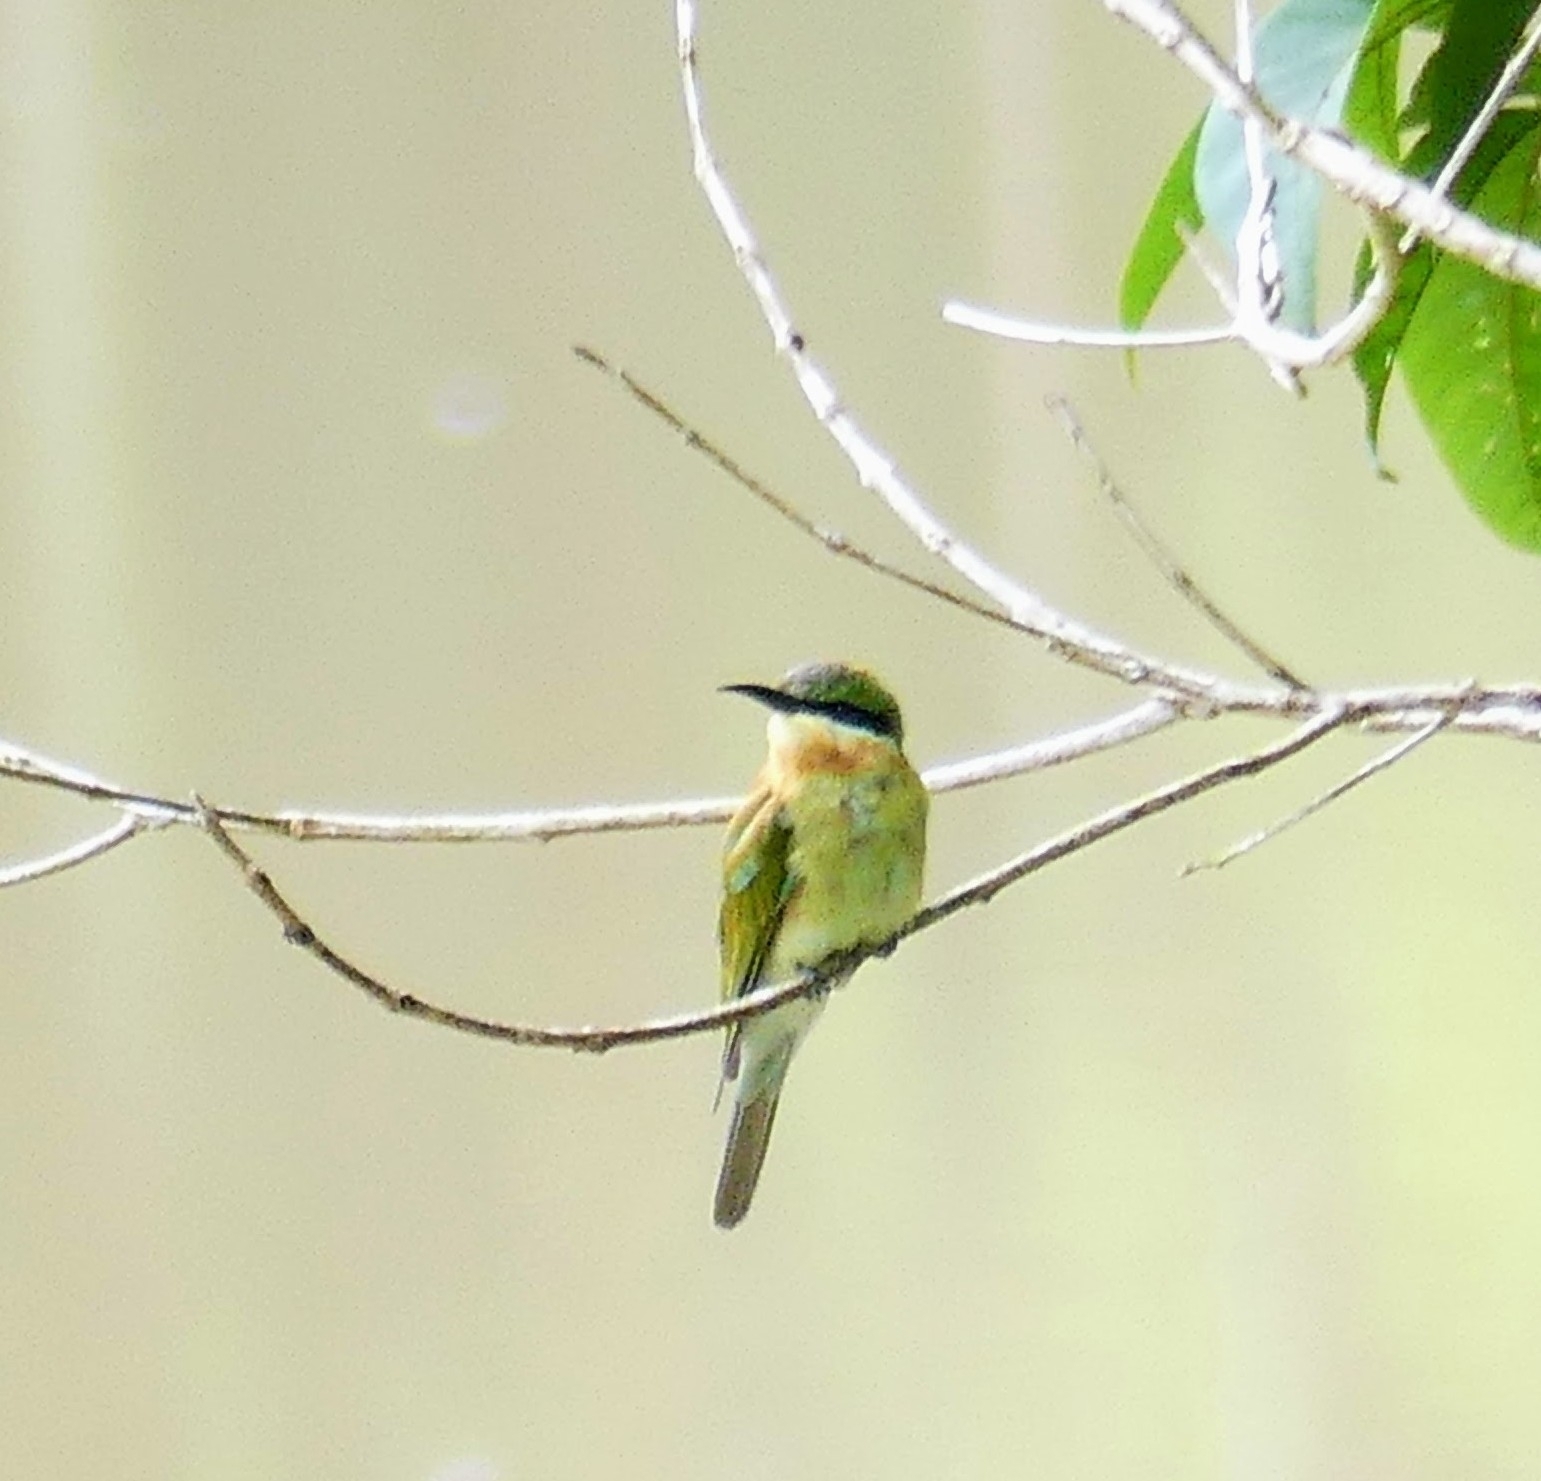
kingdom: Animalia
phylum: Chordata
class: Aves
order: Coraciiformes
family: Meropidae
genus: Merops
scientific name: Merops philippinus
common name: Blue-tailed bee-eater
